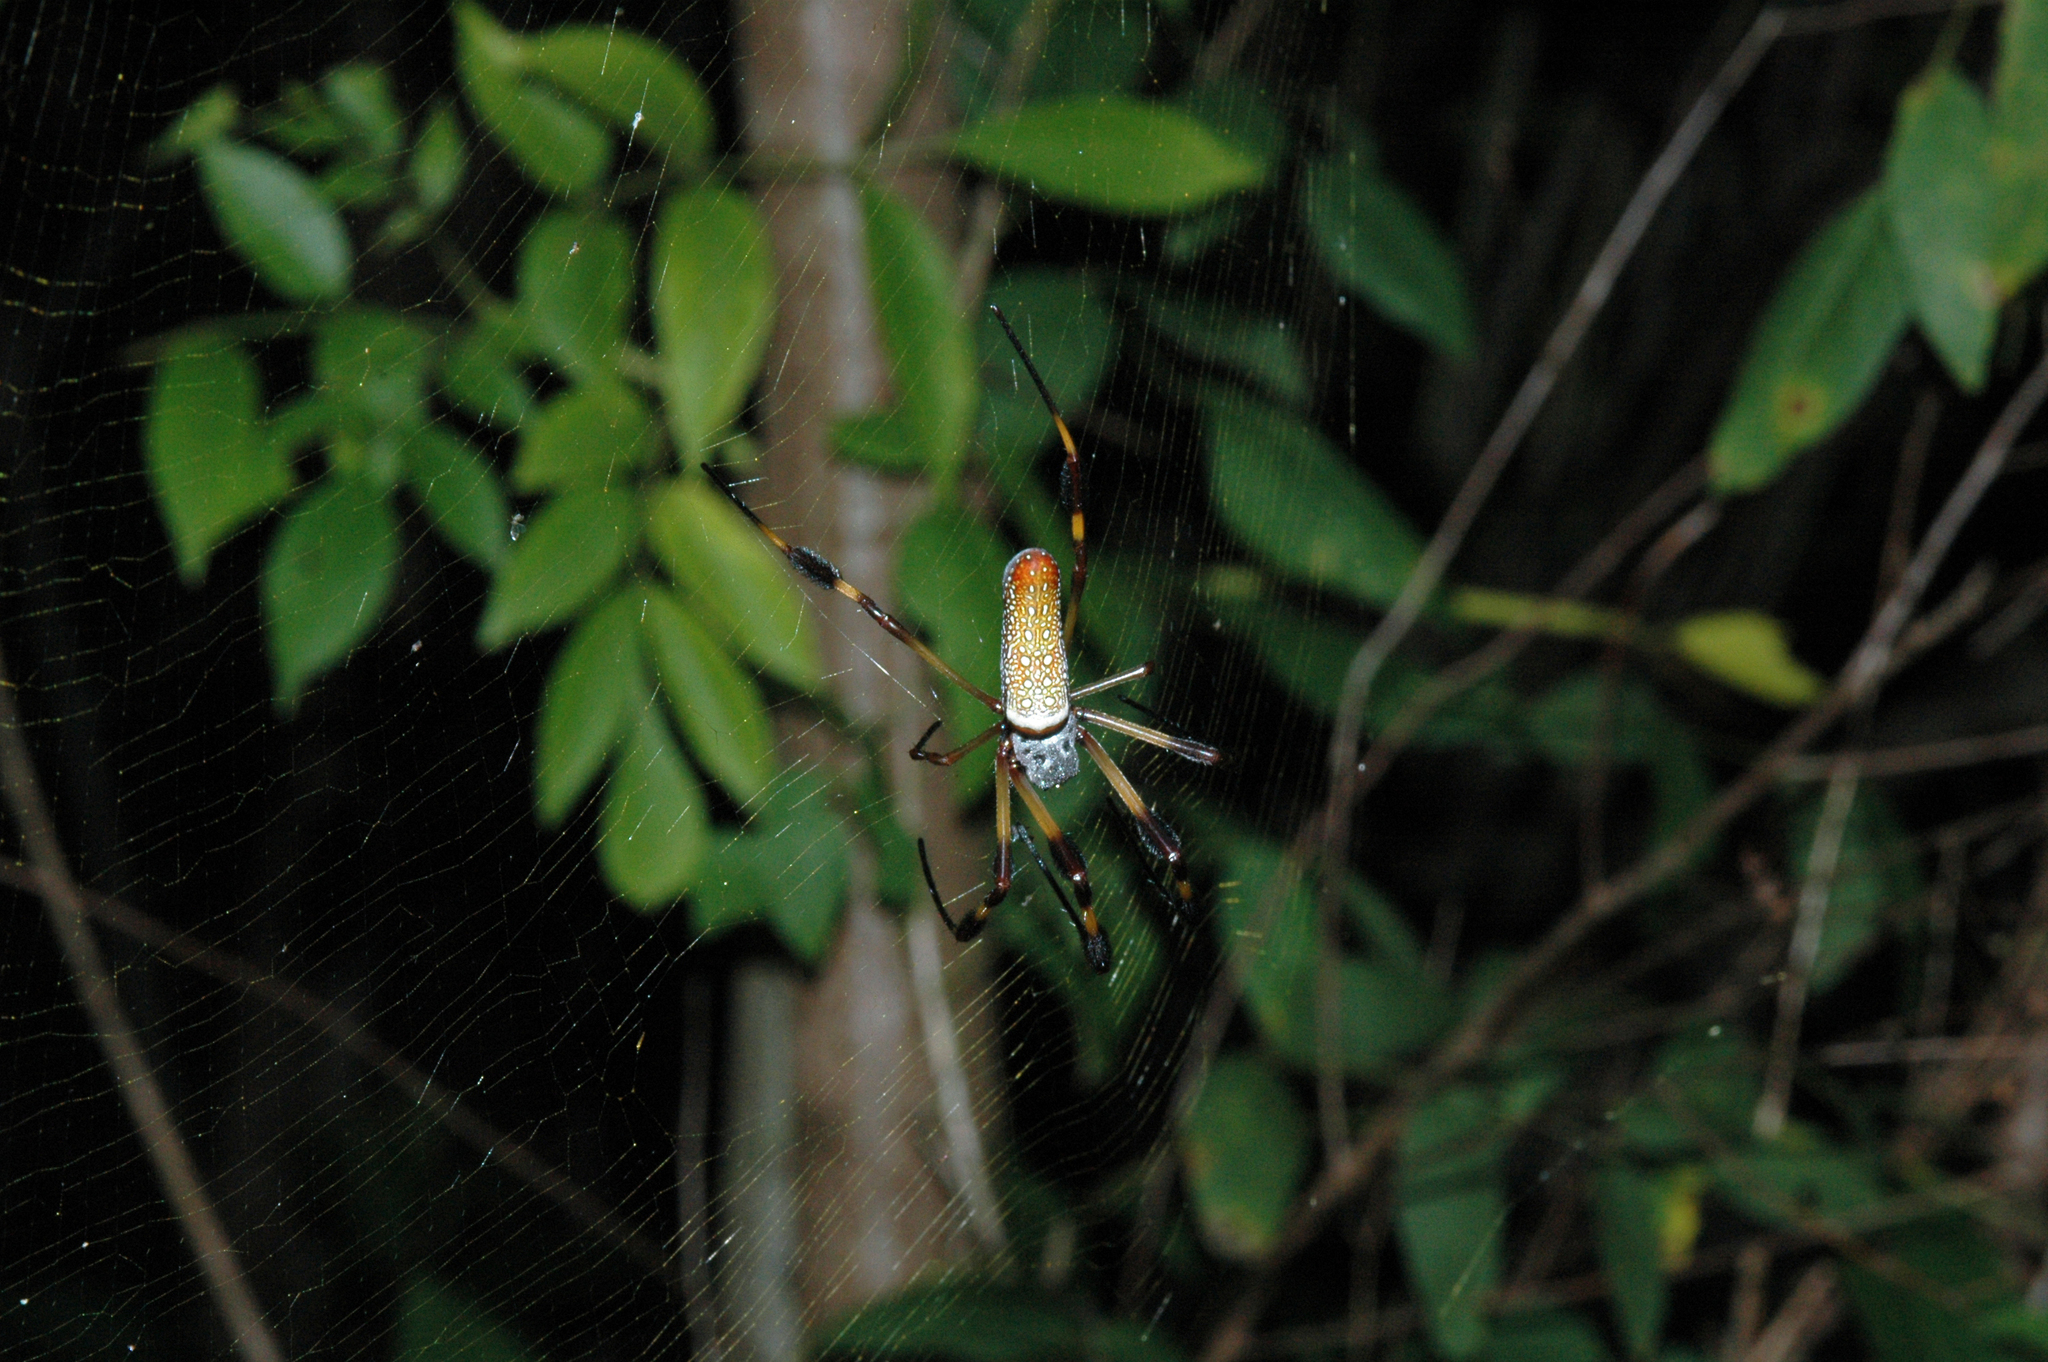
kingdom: Animalia
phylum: Arthropoda
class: Arachnida
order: Araneae
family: Araneidae
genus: Trichonephila
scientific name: Trichonephila clavipes
